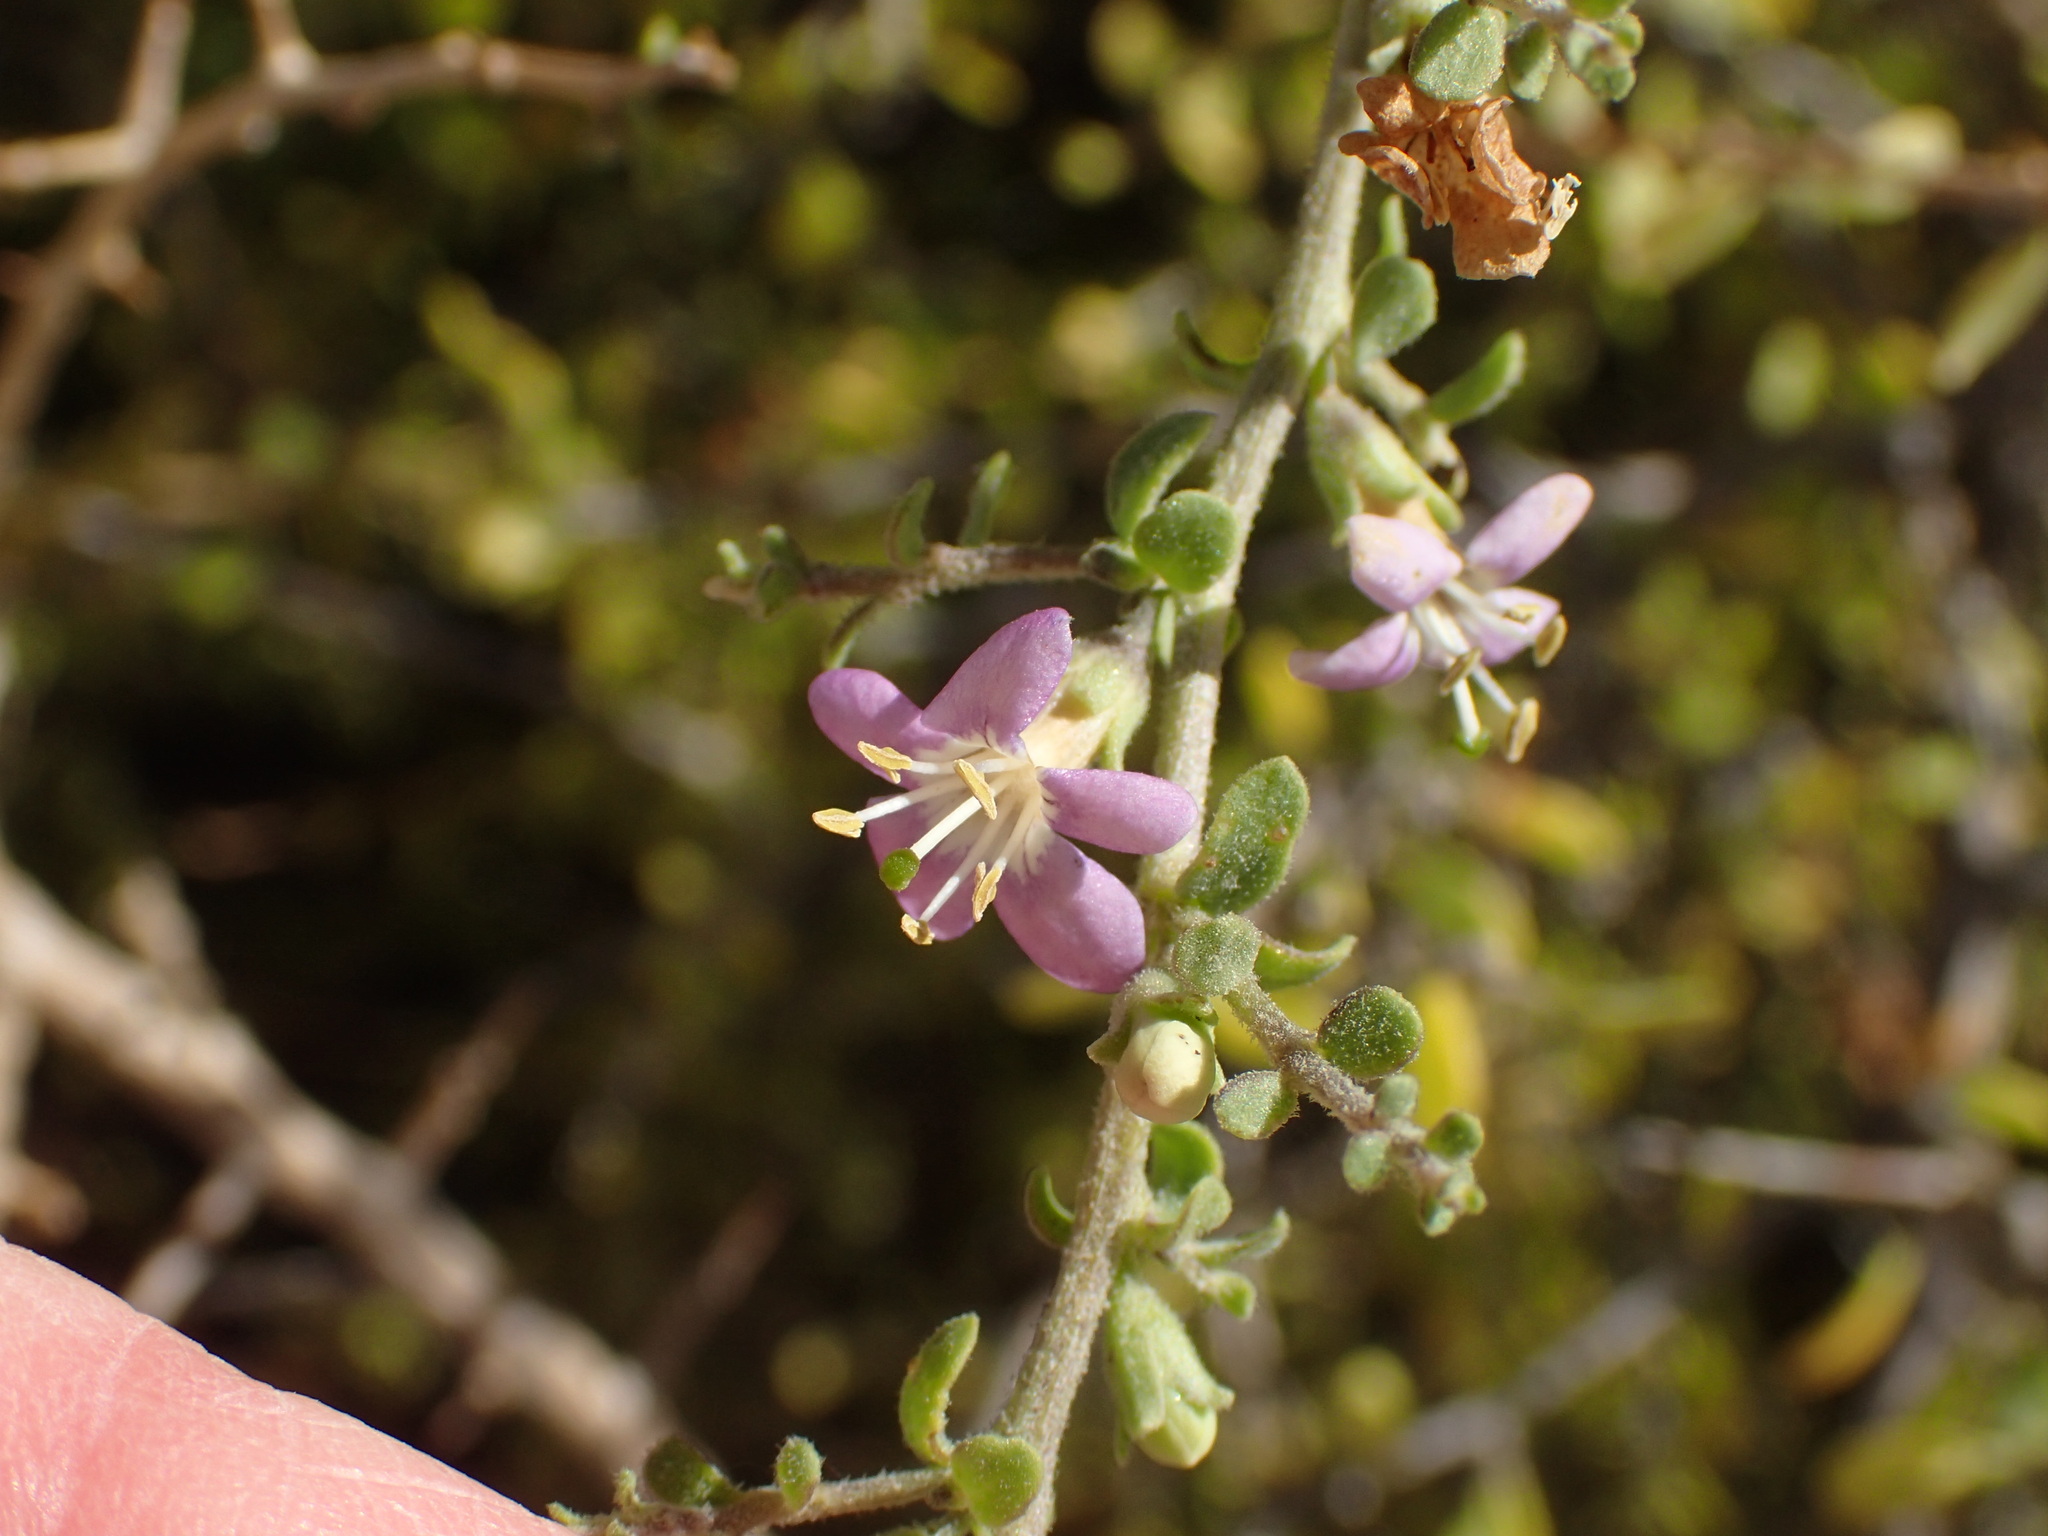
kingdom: Plantae
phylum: Tracheophyta
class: Magnoliopsida
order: Solanales
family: Solanaceae
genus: Lycium
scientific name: Lycium brevipes
